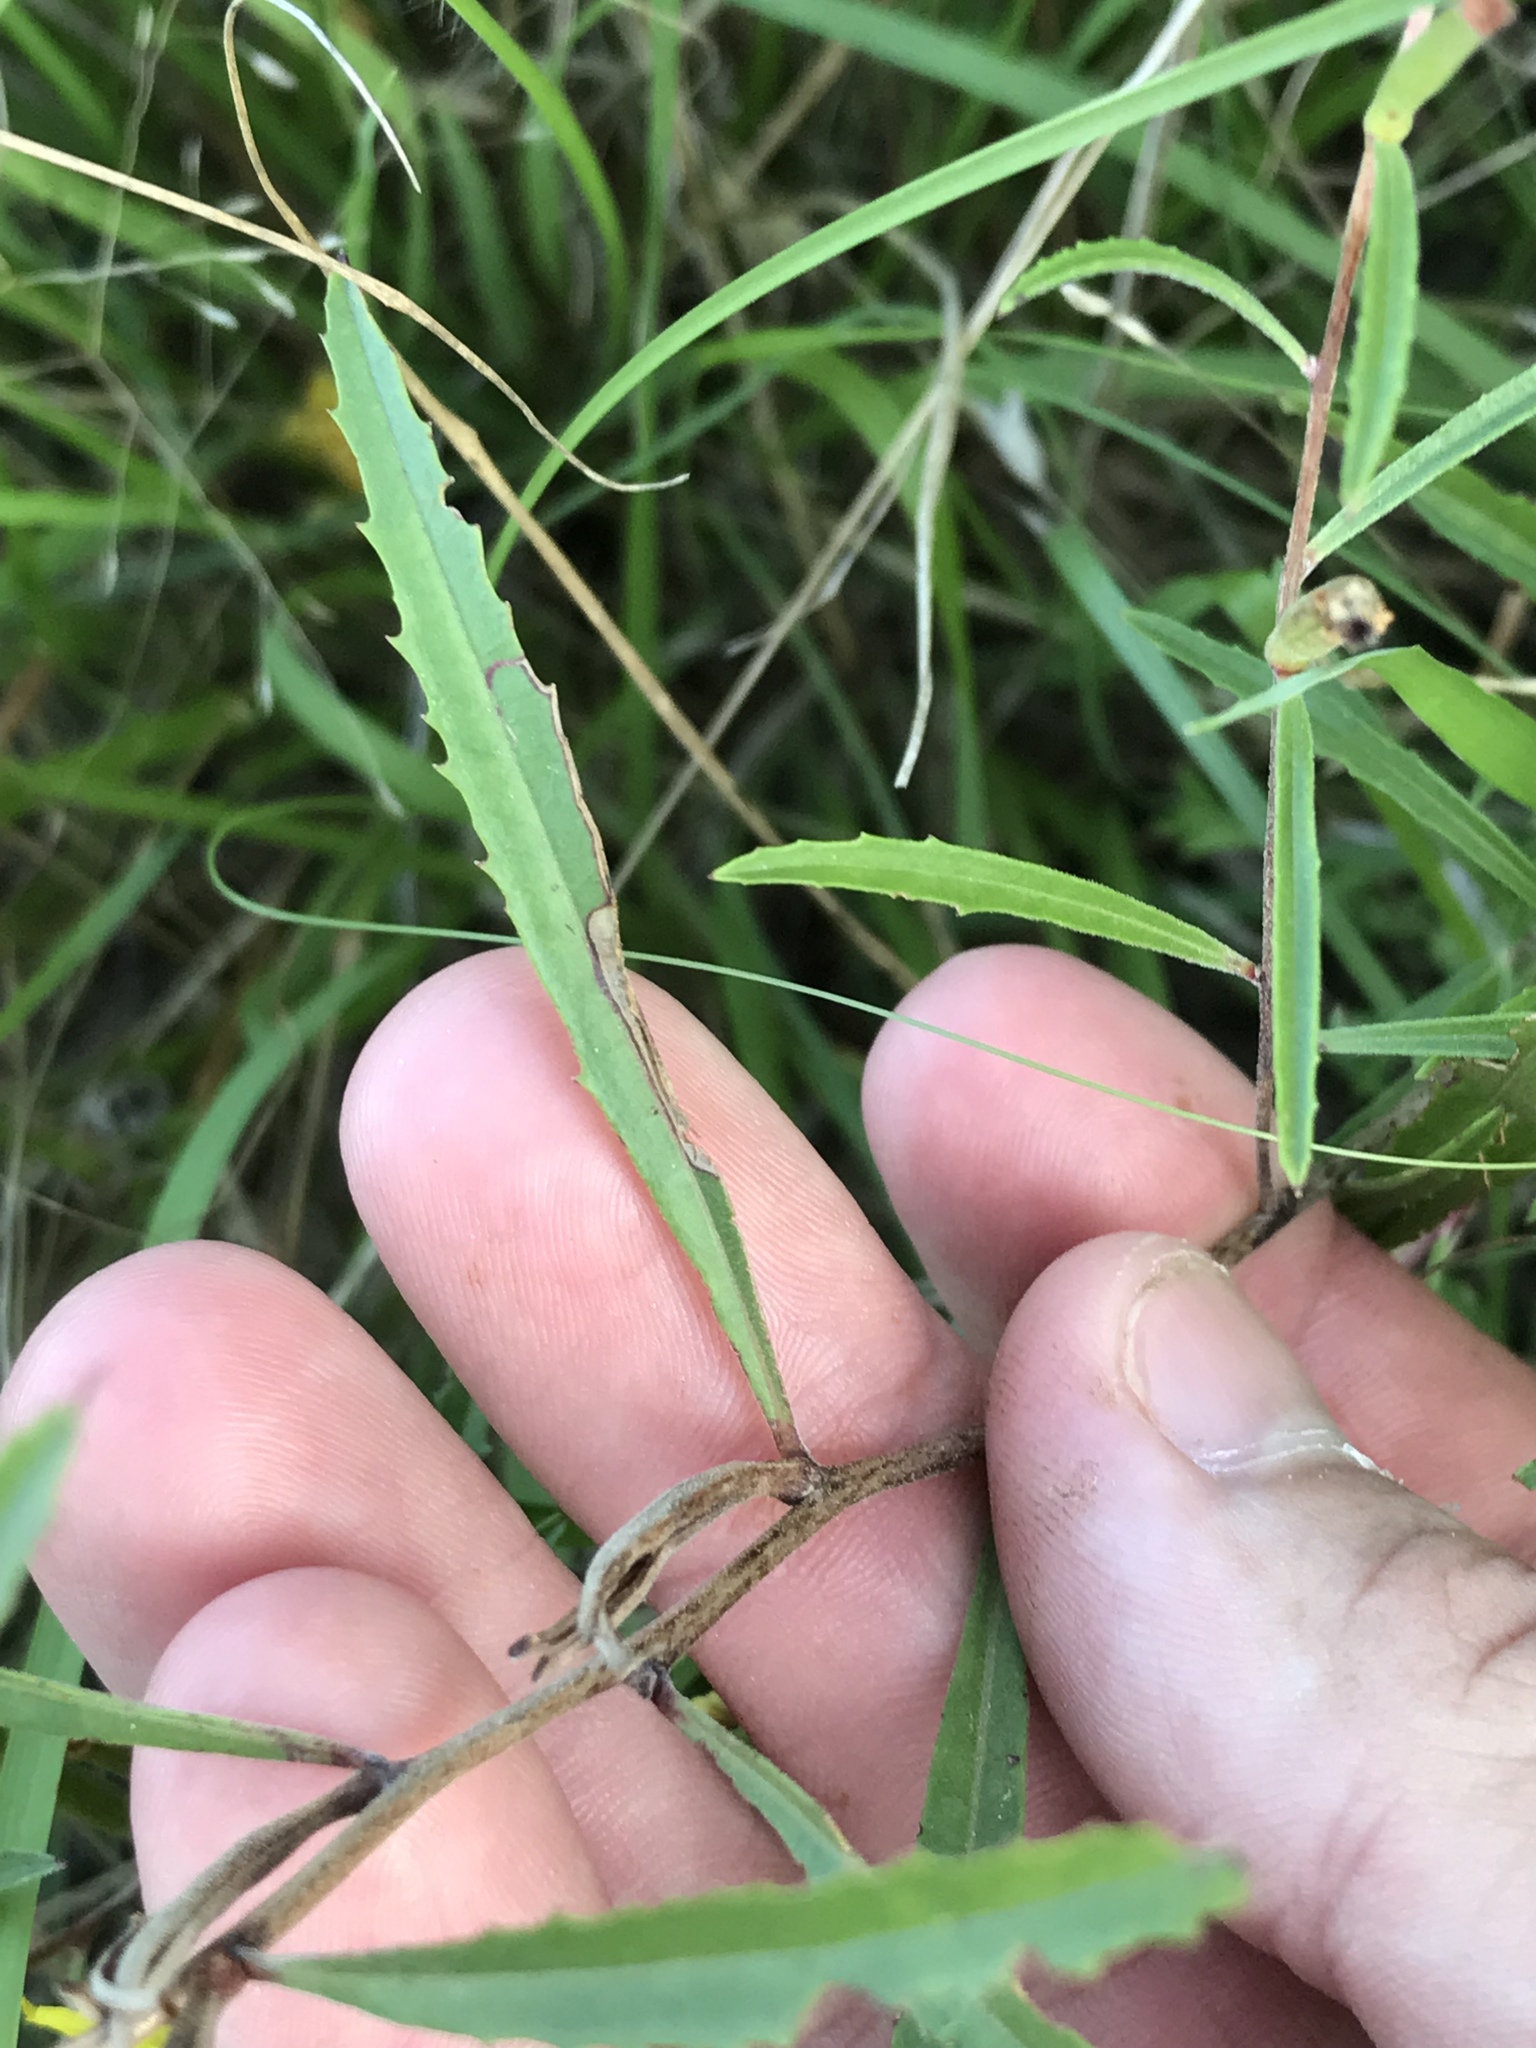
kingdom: Plantae
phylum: Tracheophyta
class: Magnoliopsida
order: Myrtales
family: Onagraceae
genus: Oenothera
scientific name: Oenothera capillifolia
